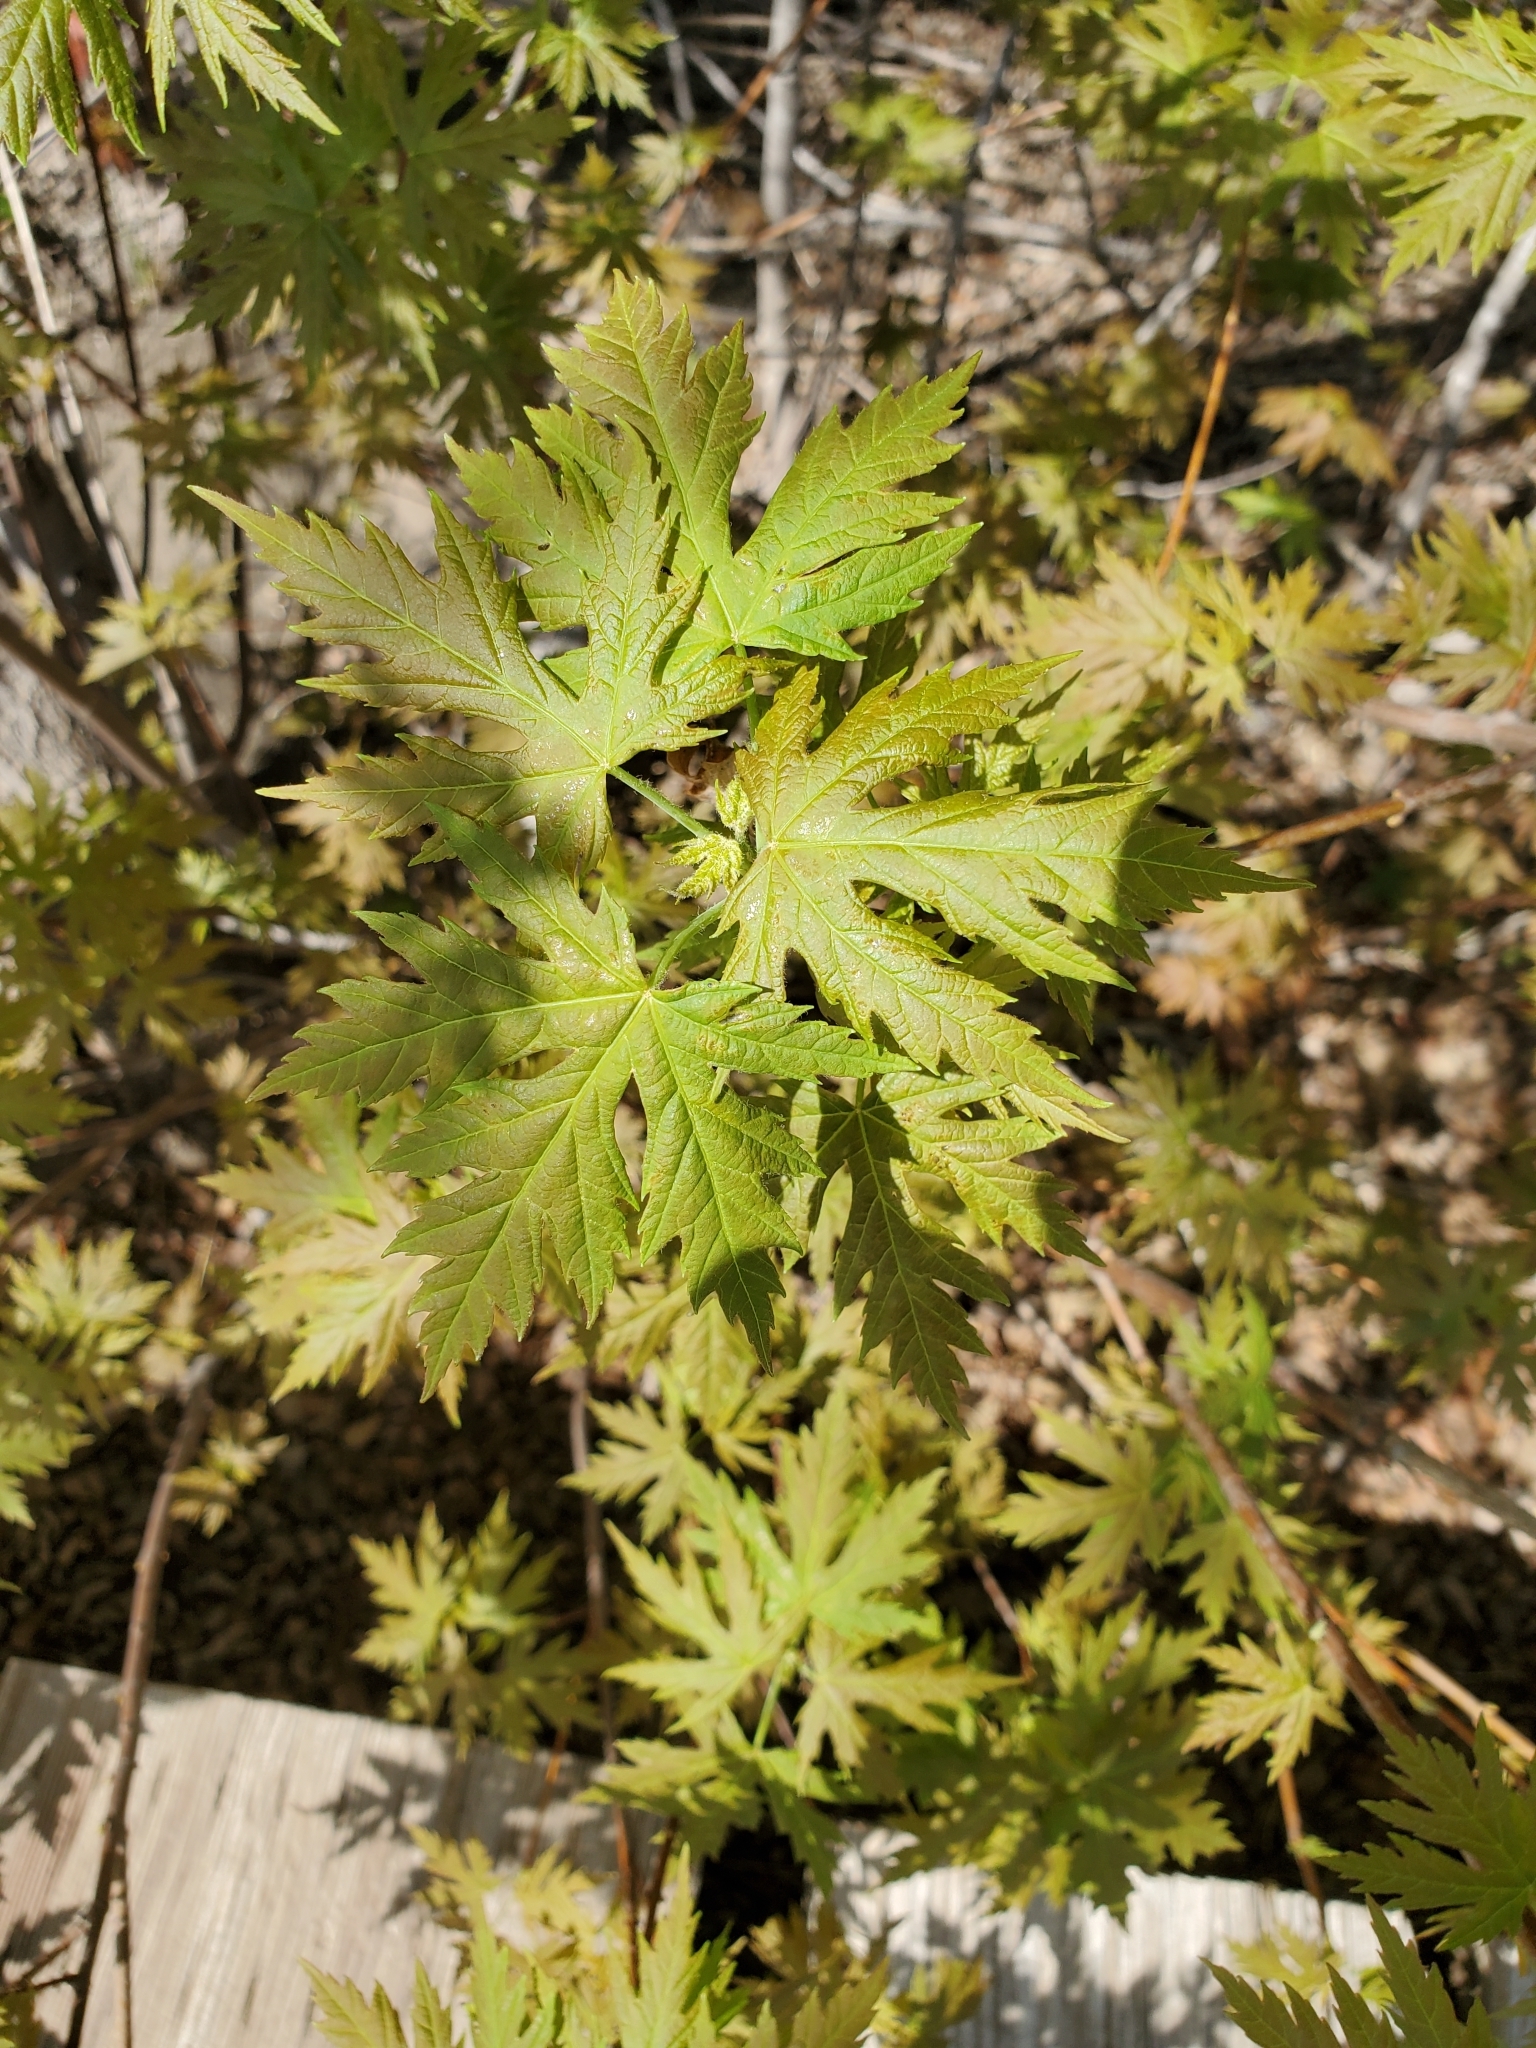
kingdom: Plantae
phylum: Tracheophyta
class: Magnoliopsida
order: Sapindales
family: Sapindaceae
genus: Acer
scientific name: Acer saccharinum
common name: Silver maple
